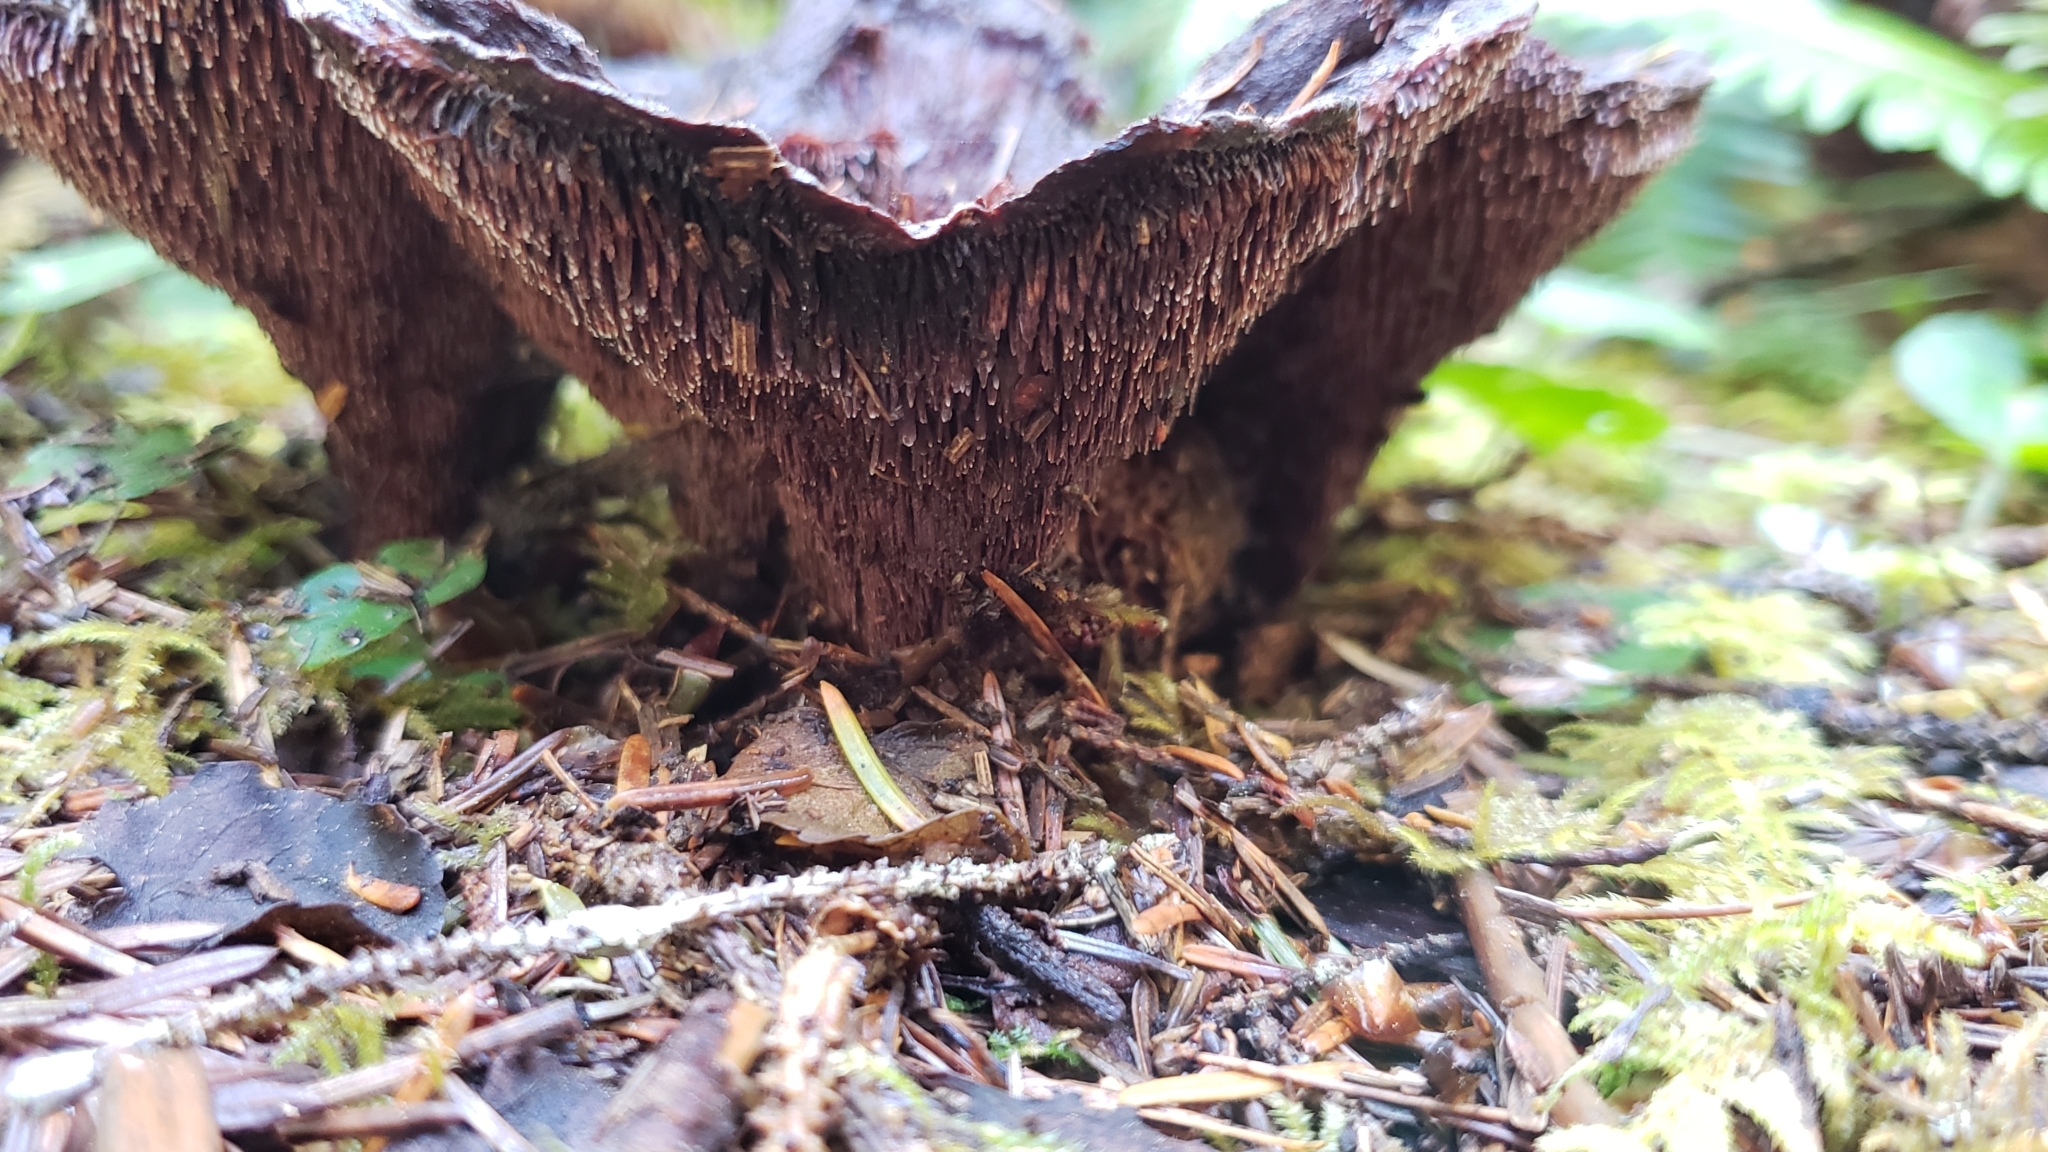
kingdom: Fungi
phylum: Basidiomycota
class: Agaricomycetes
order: Thelephorales
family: Bankeraceae
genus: Hydnellum
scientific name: Hydnellum peckii
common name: Devil's tooth
